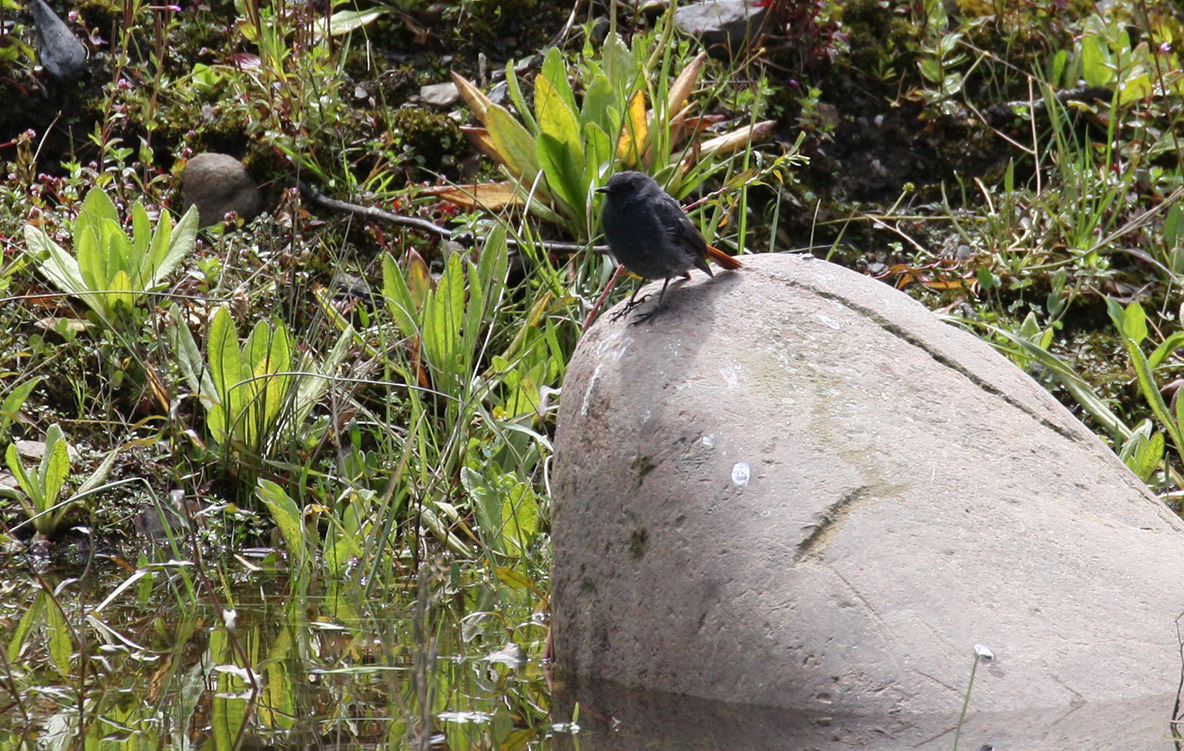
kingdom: Animalia
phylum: Chordata
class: Aves
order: Passeriformes
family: Muscicapidae
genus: Phoenicurus
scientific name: Phoenicurus fuliginosus
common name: Plumbeous water redstart
